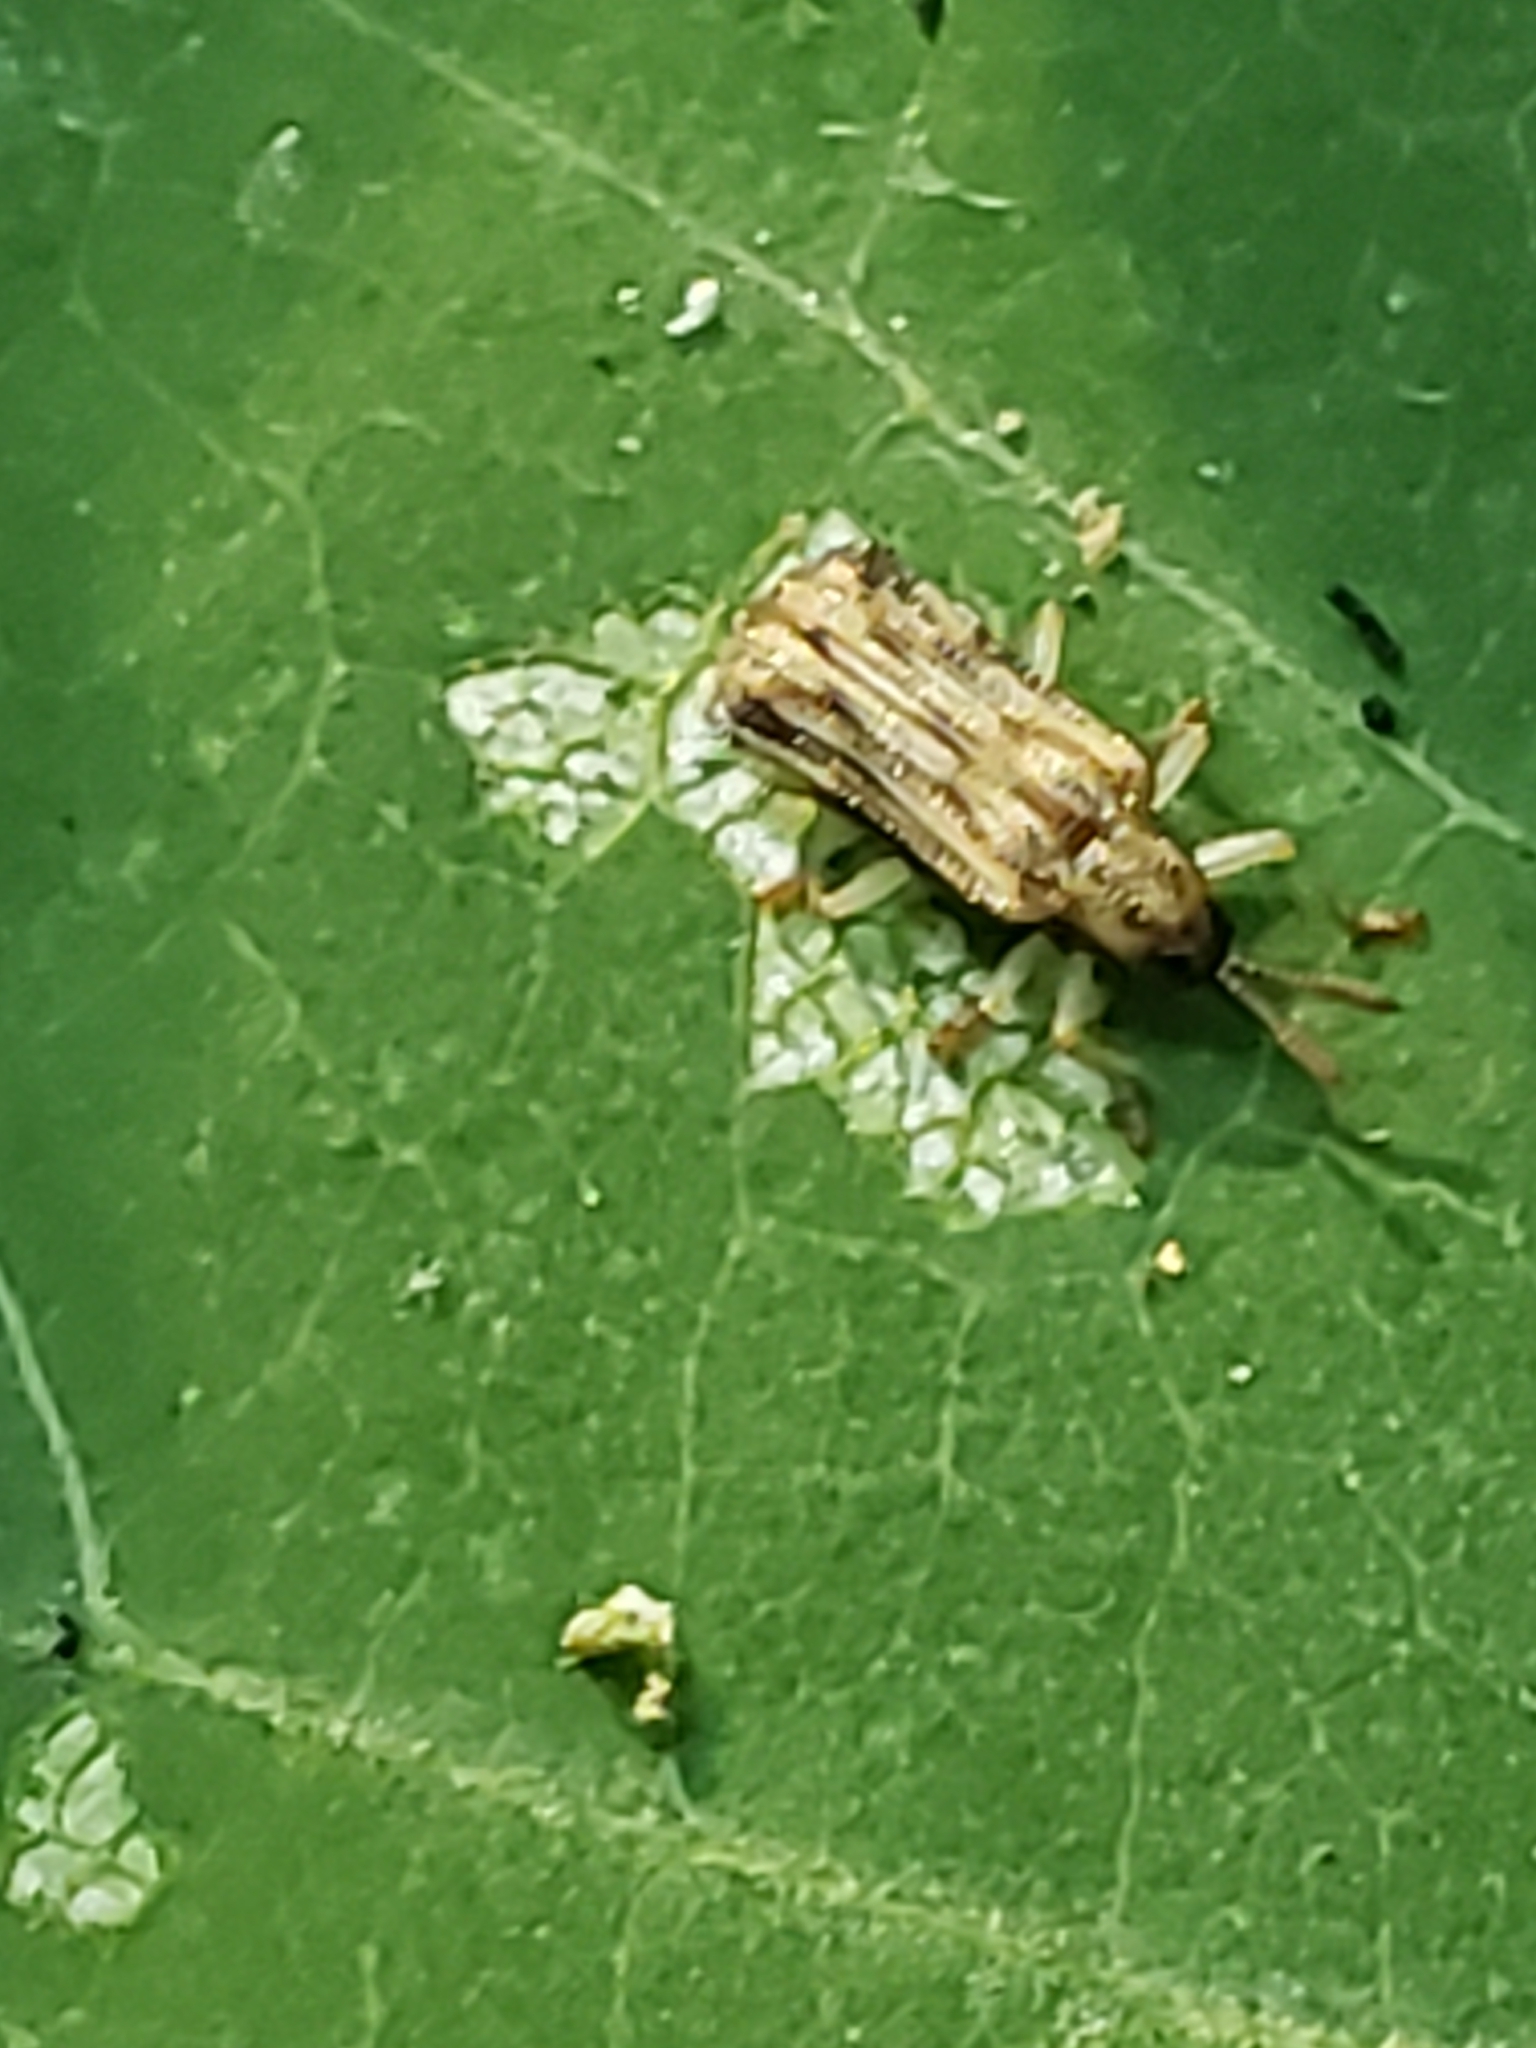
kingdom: Animalia
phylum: Arthropoda
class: Insecta
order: Coleoptera
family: Chrysomelidae
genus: Sumitrosis
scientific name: Sumitrosis rosea
